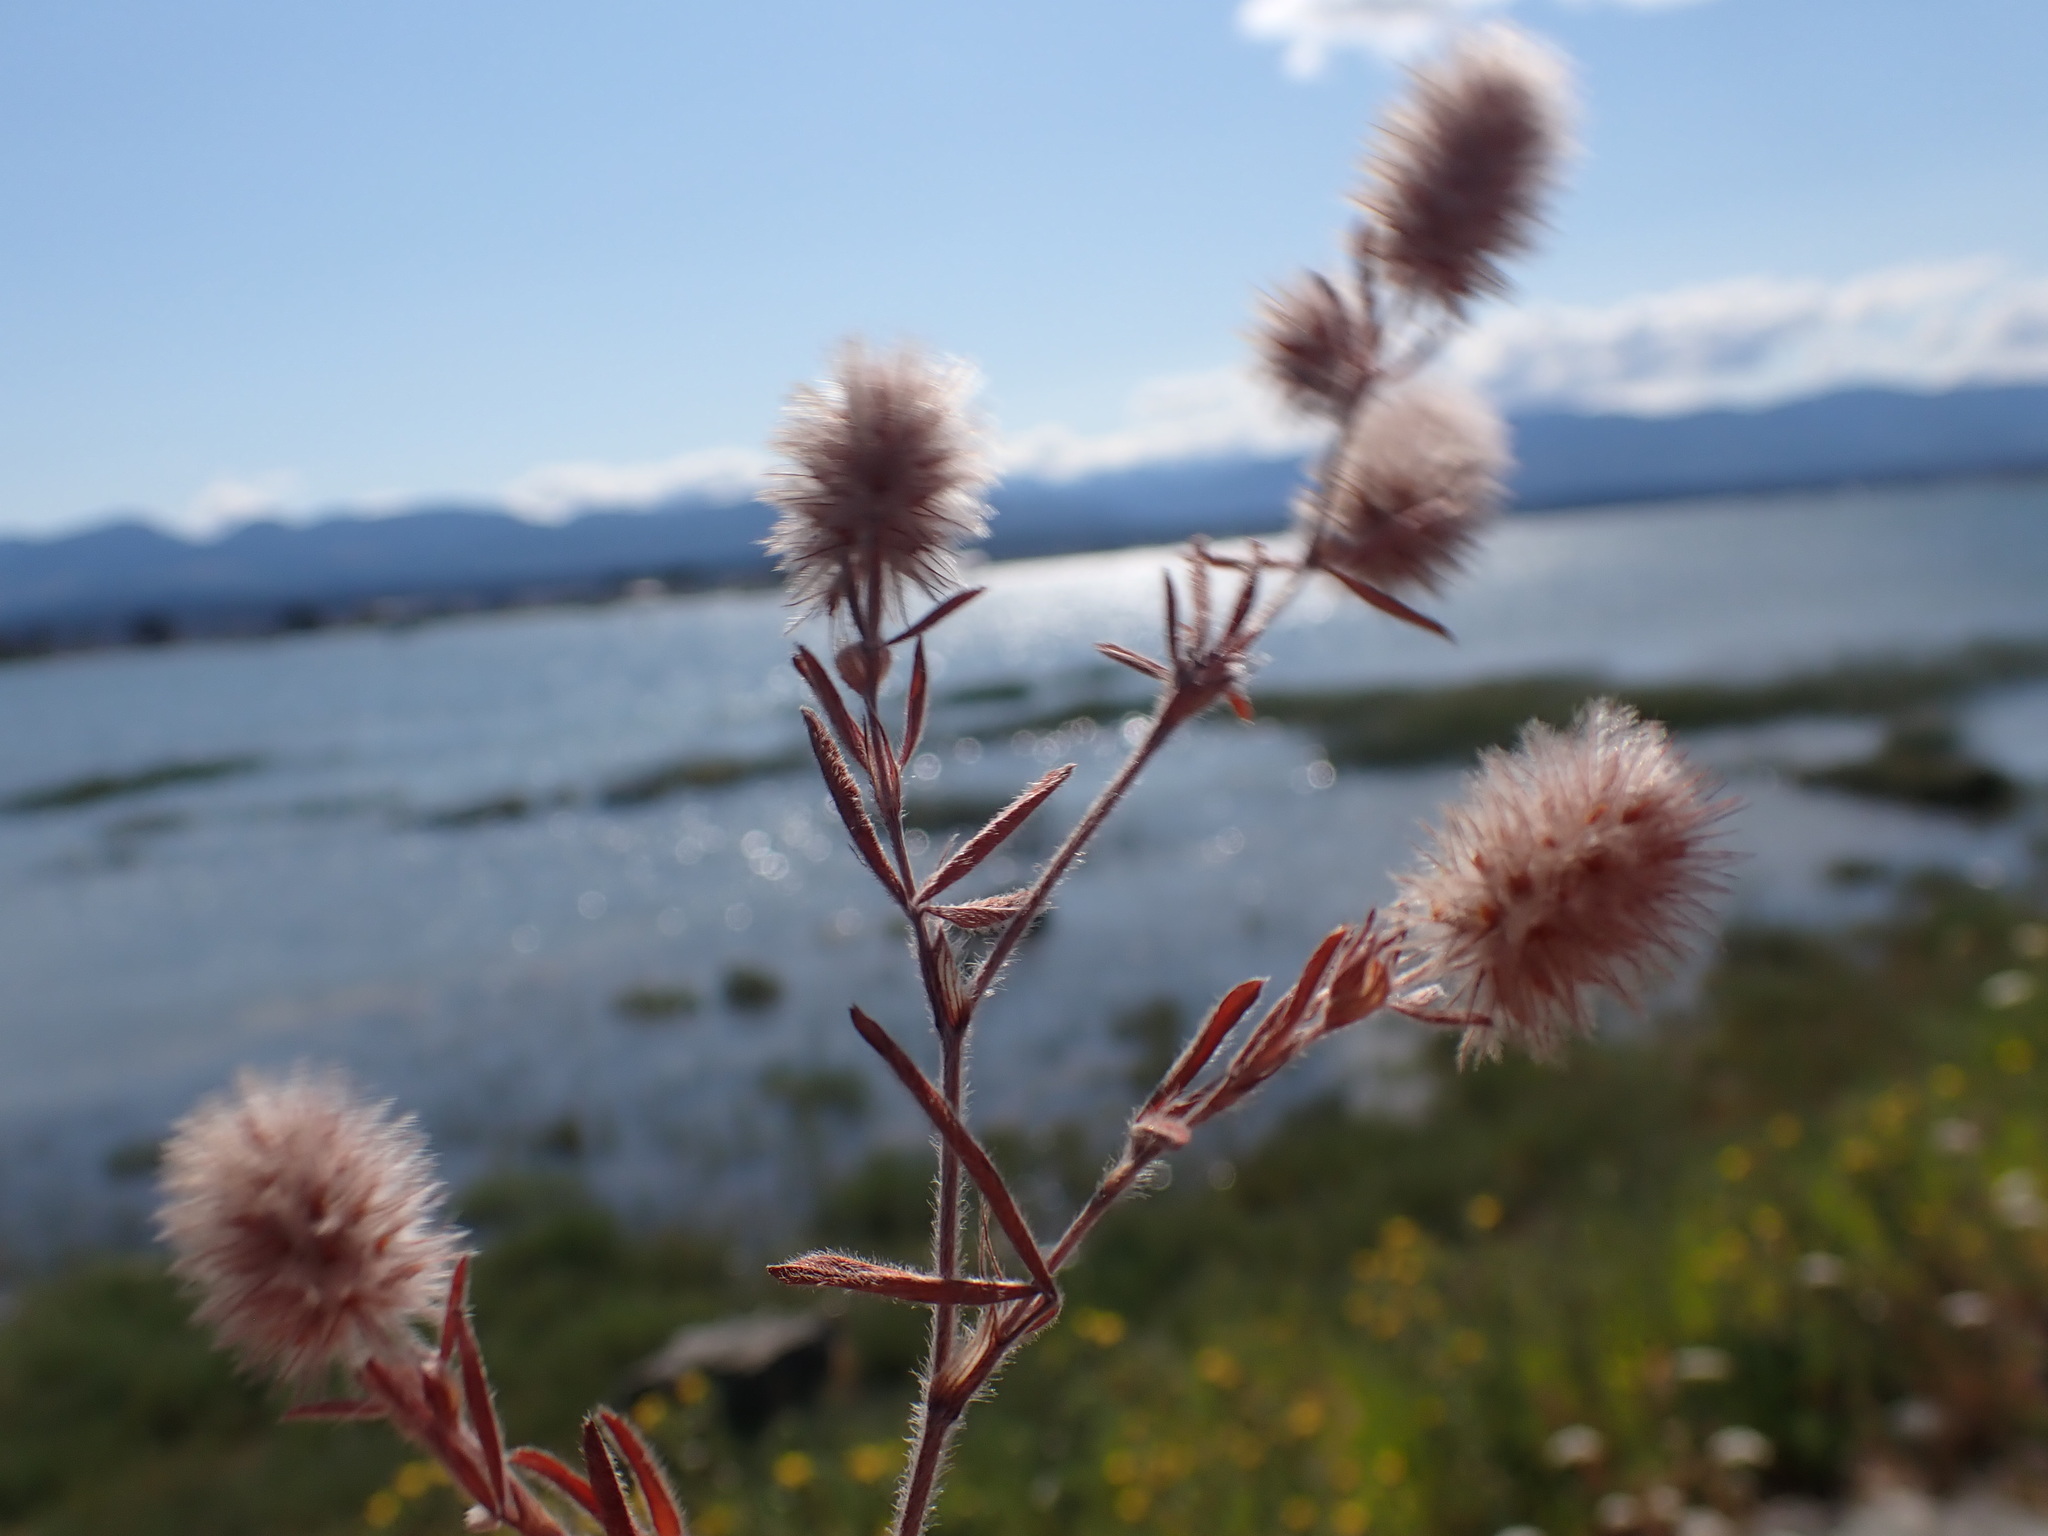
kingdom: Plantae
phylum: Tracheophyta
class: Magnoliopsida
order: Fabales
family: Fabaceae
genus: Trifolium
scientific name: Trifolium arvense
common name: Hare's-foot clover
